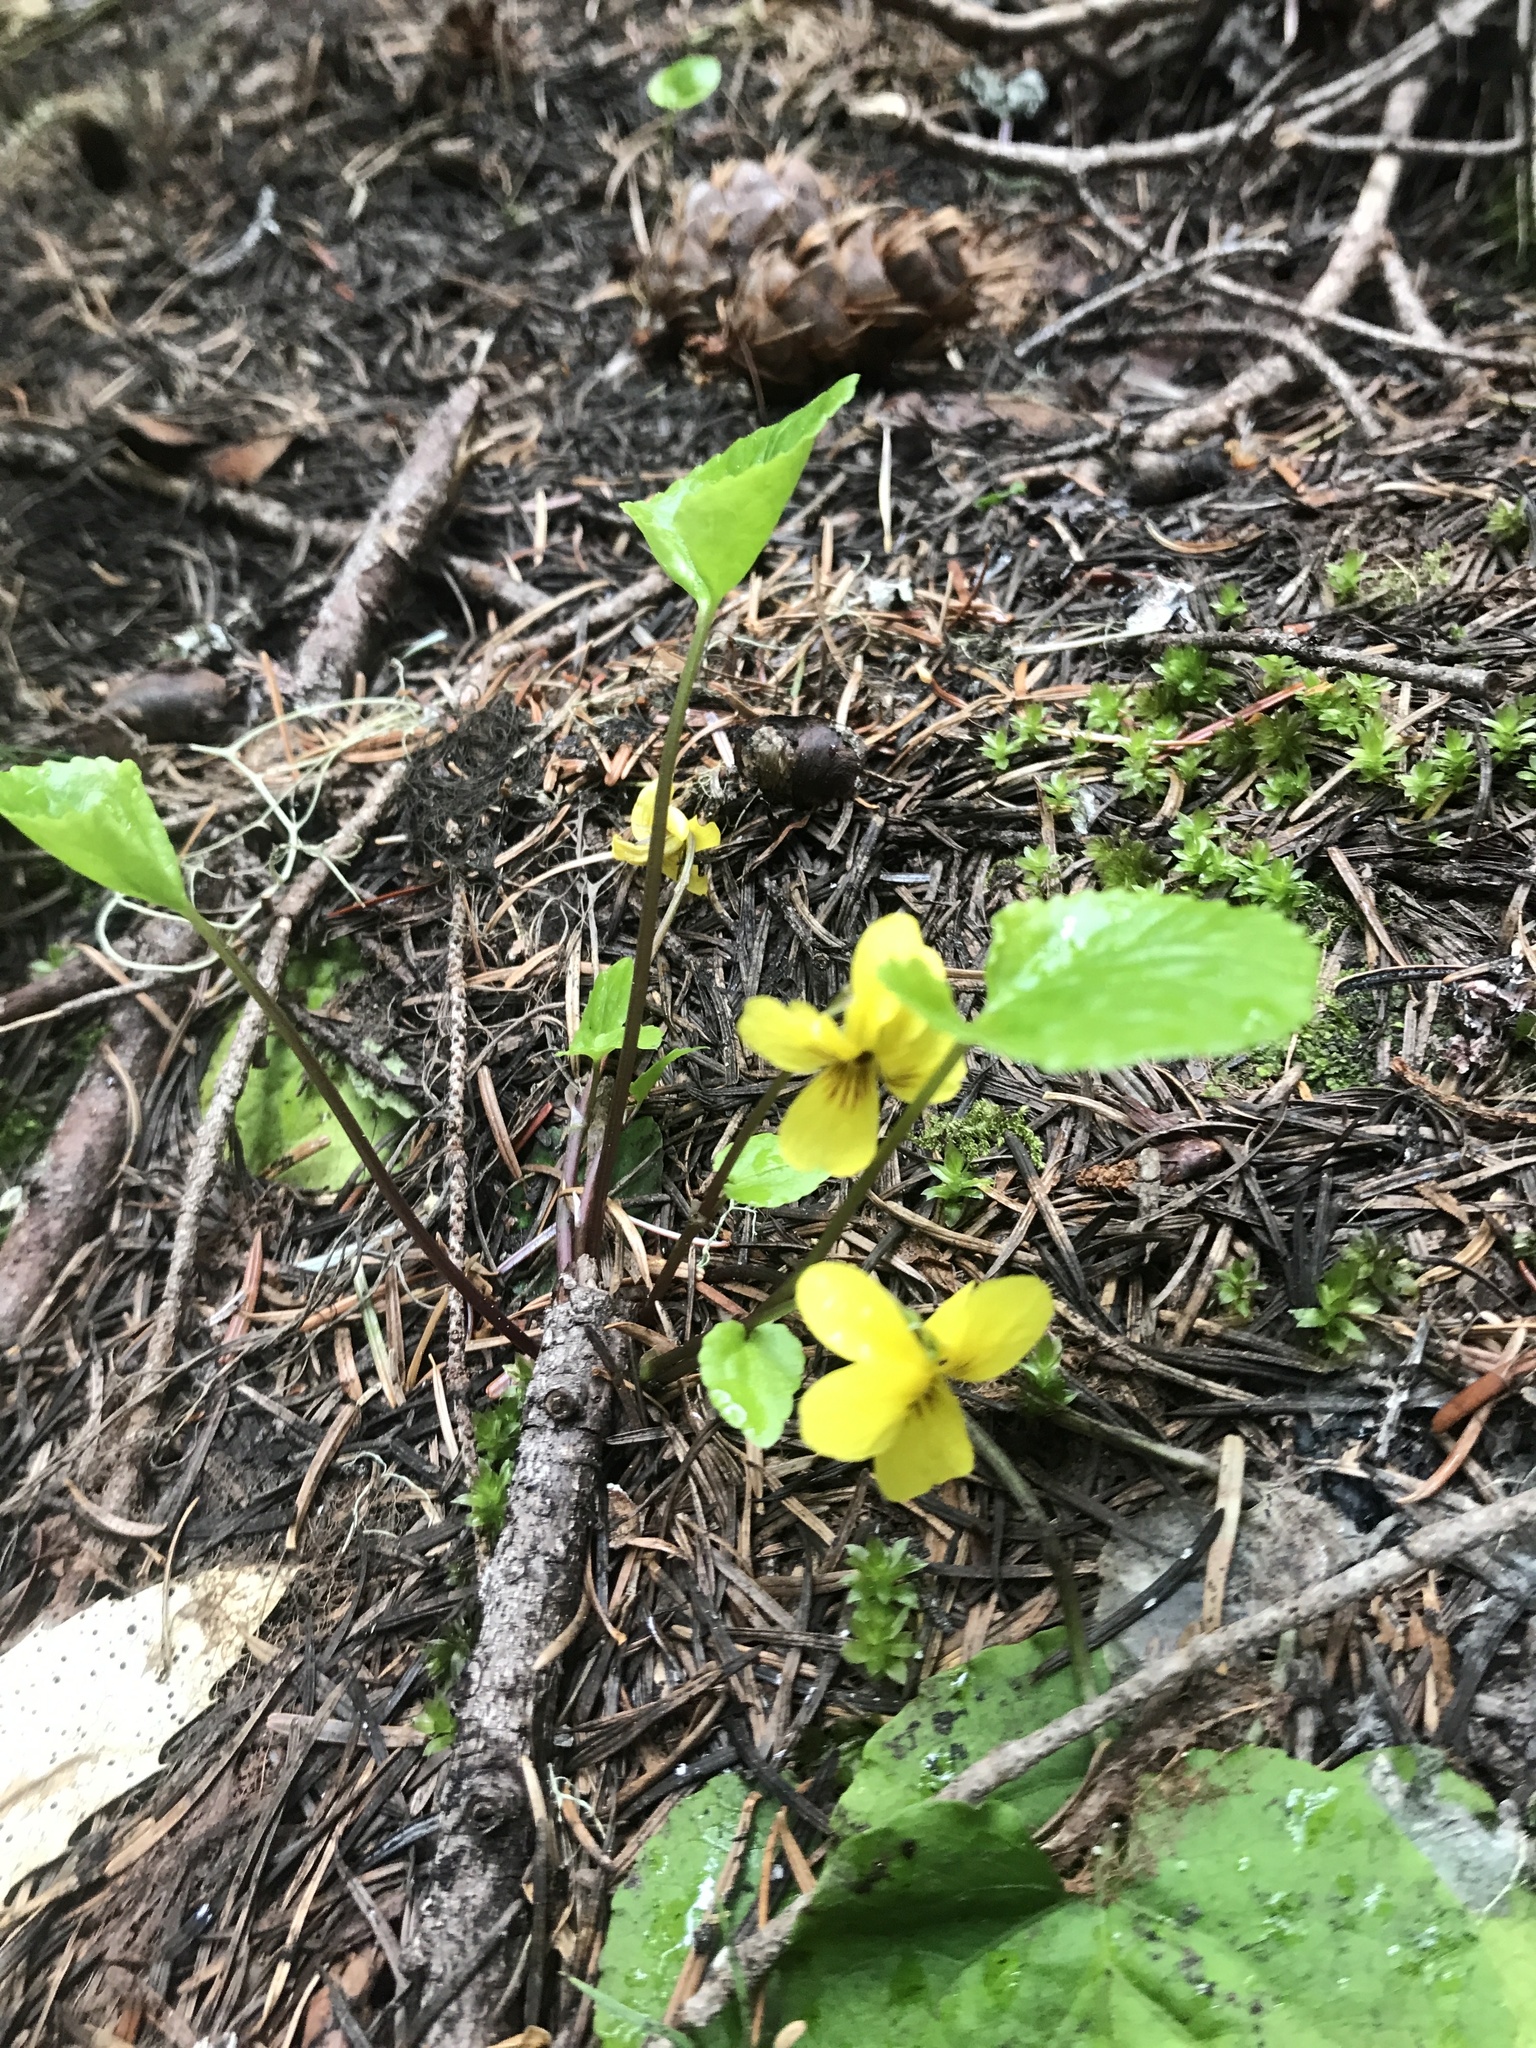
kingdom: Plantae
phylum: Tracheophyta
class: Magnoliopsida
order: Malpighiales
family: Violaceae
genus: Viola
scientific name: Viola orbiculata
